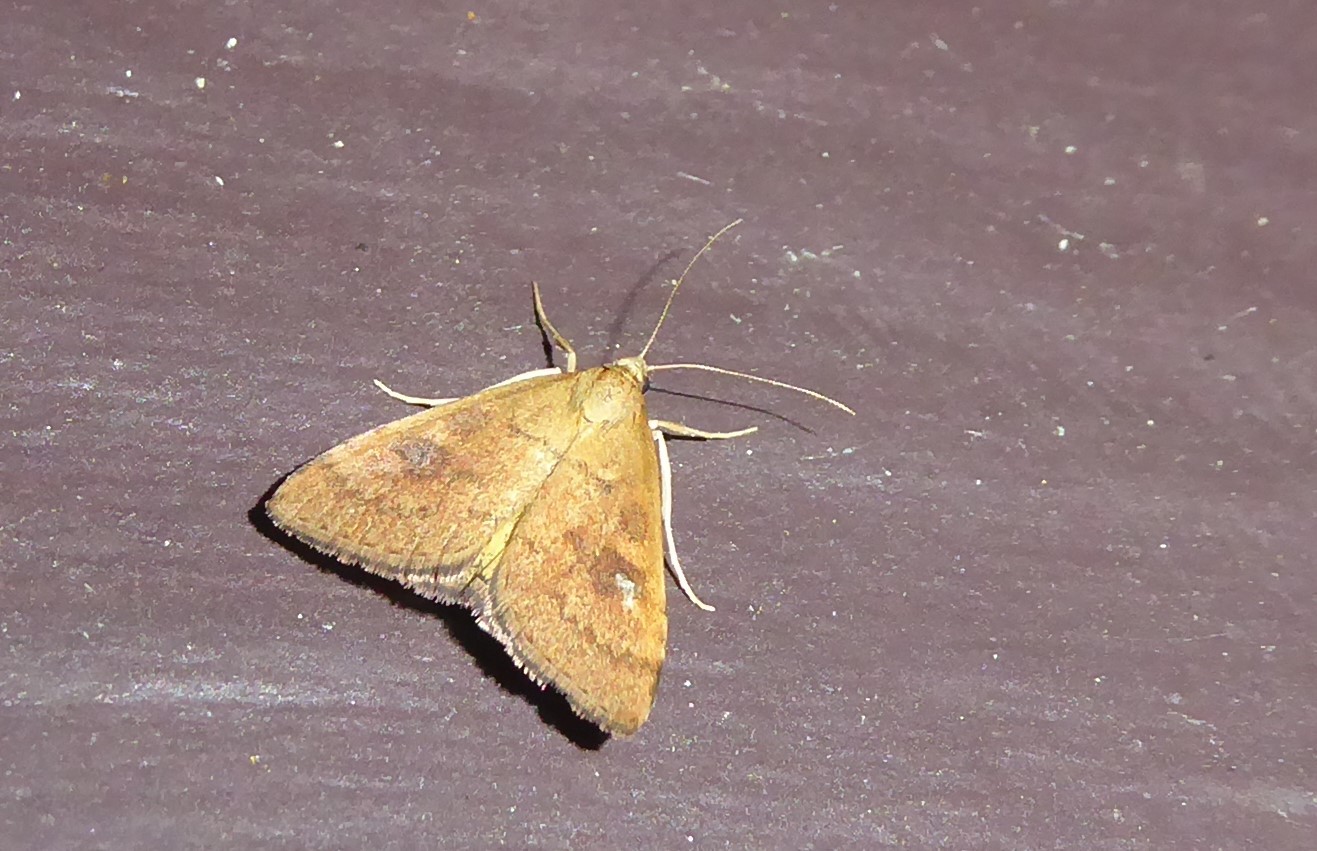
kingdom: Animalia
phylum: Arthropoda
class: Insecta
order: Lepidoptera
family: Crambidae
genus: Udea
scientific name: Udea Mnesictena flavidalis
